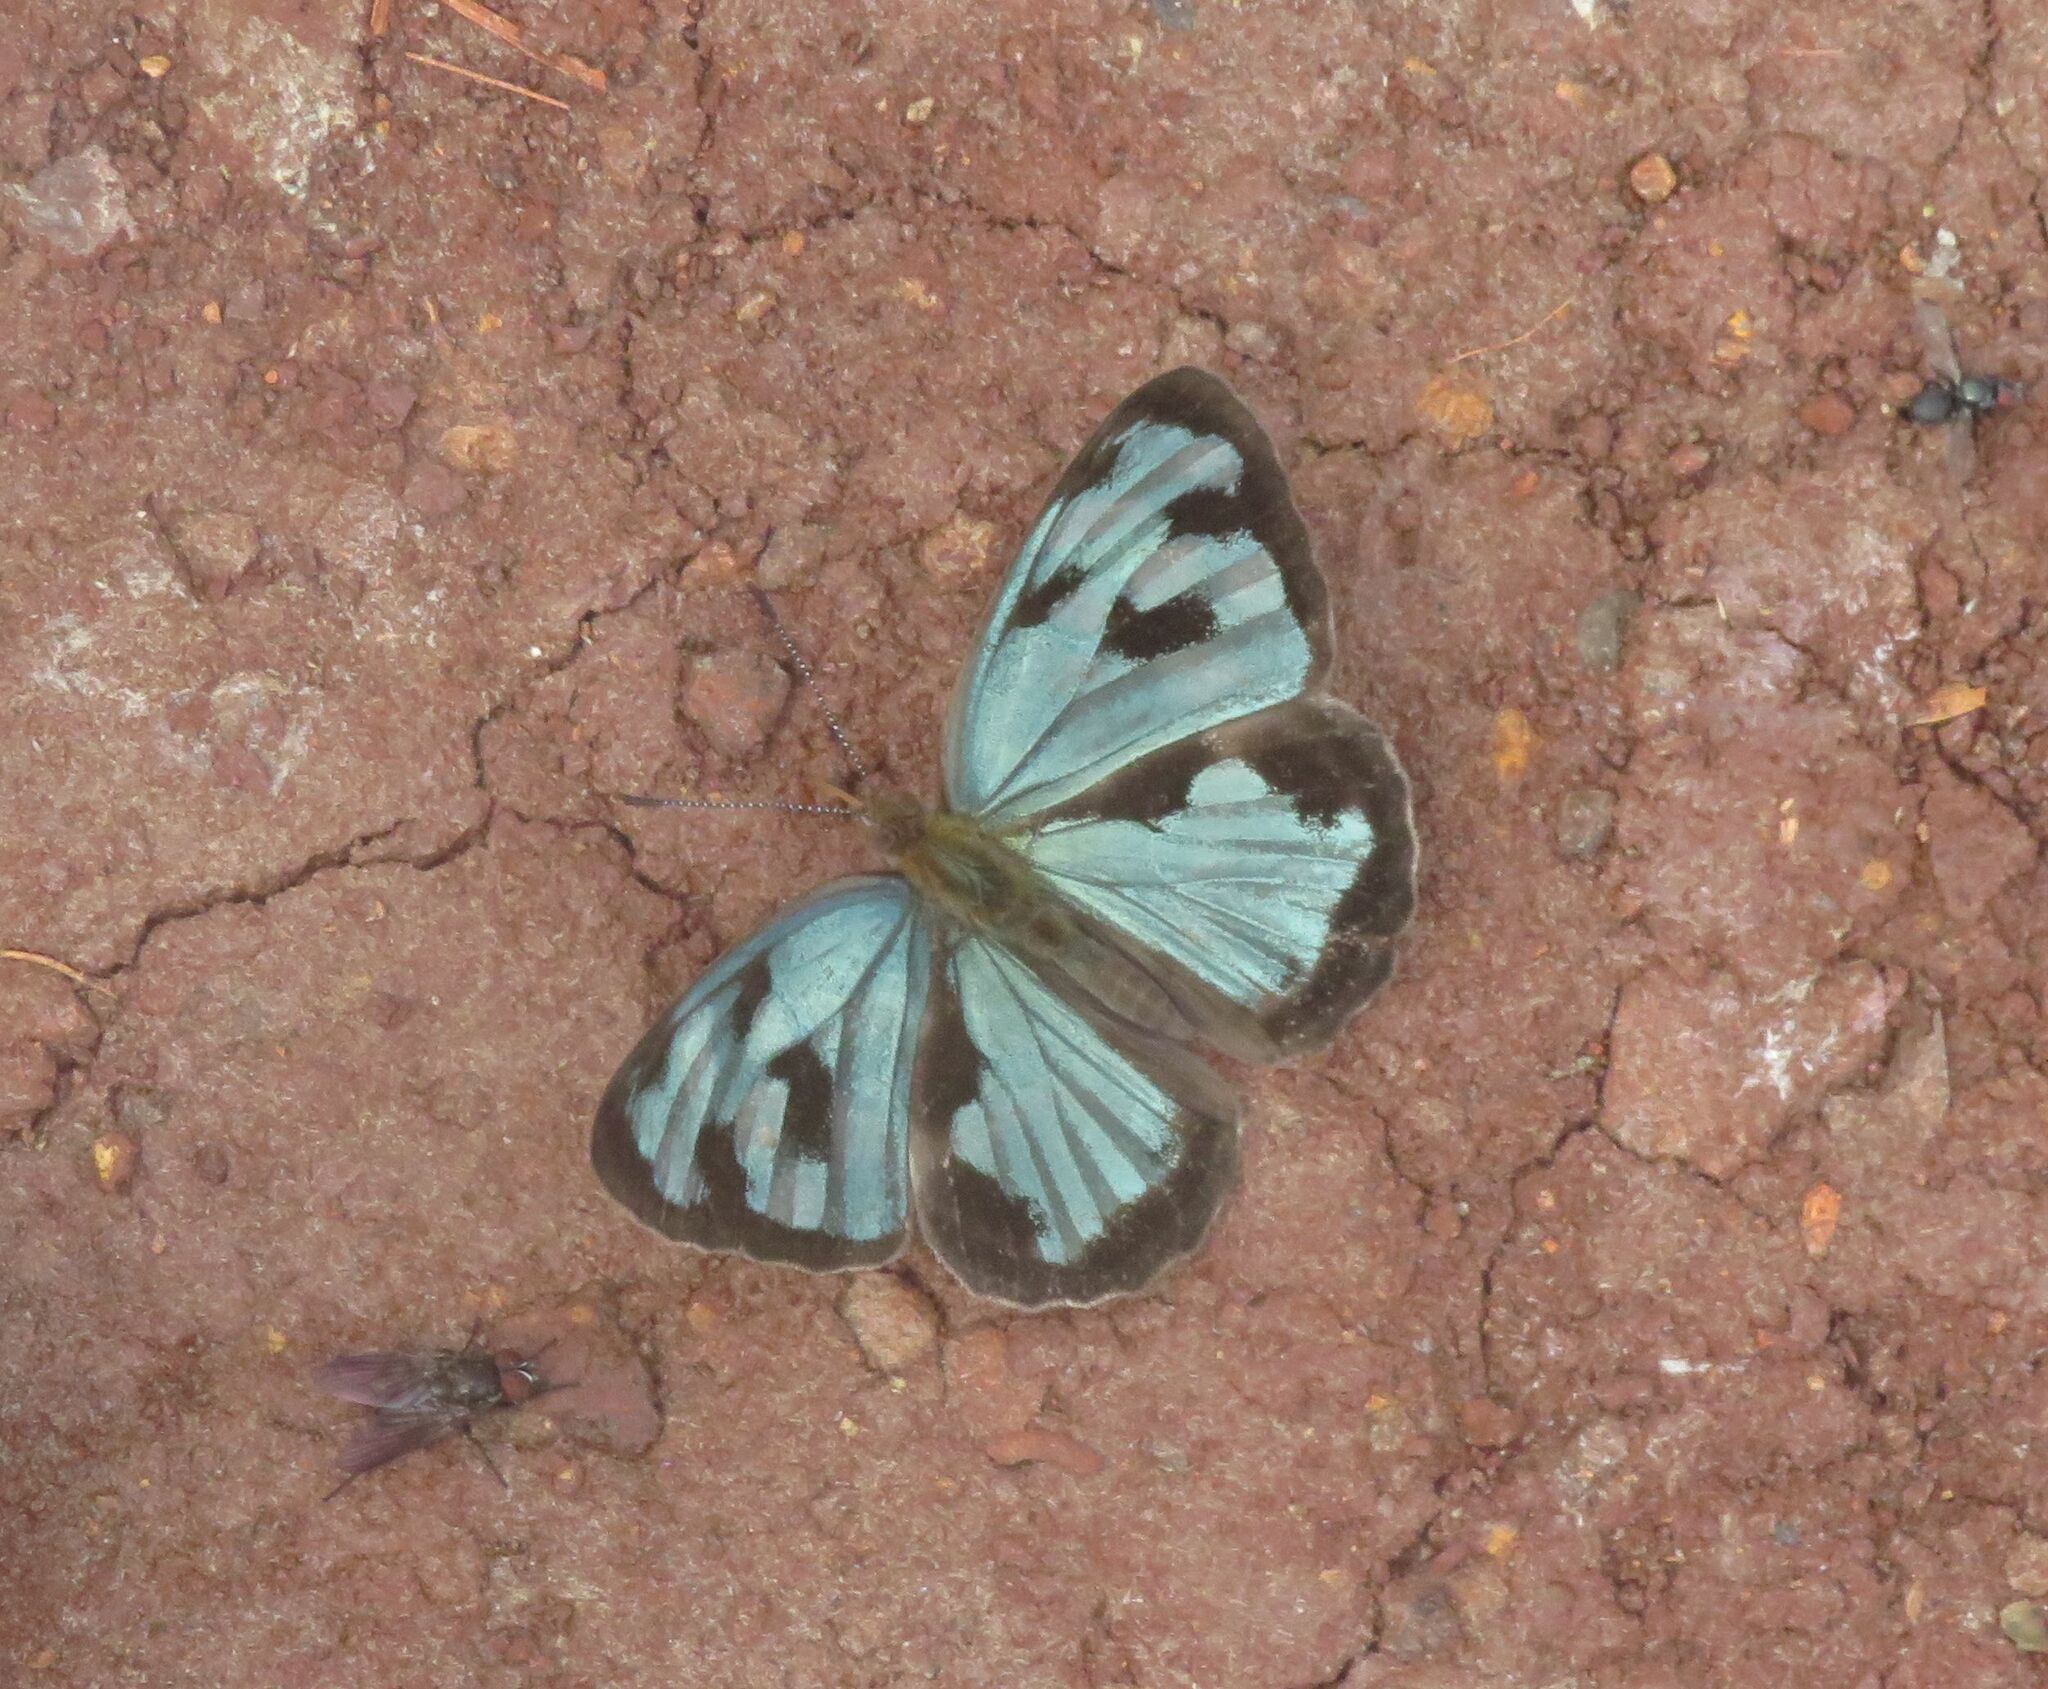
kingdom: Animalia
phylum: Arthropoda
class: Insecta
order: Lepidoptera
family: Nymphalidae
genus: Dynamine
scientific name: Dynamine mylitta
